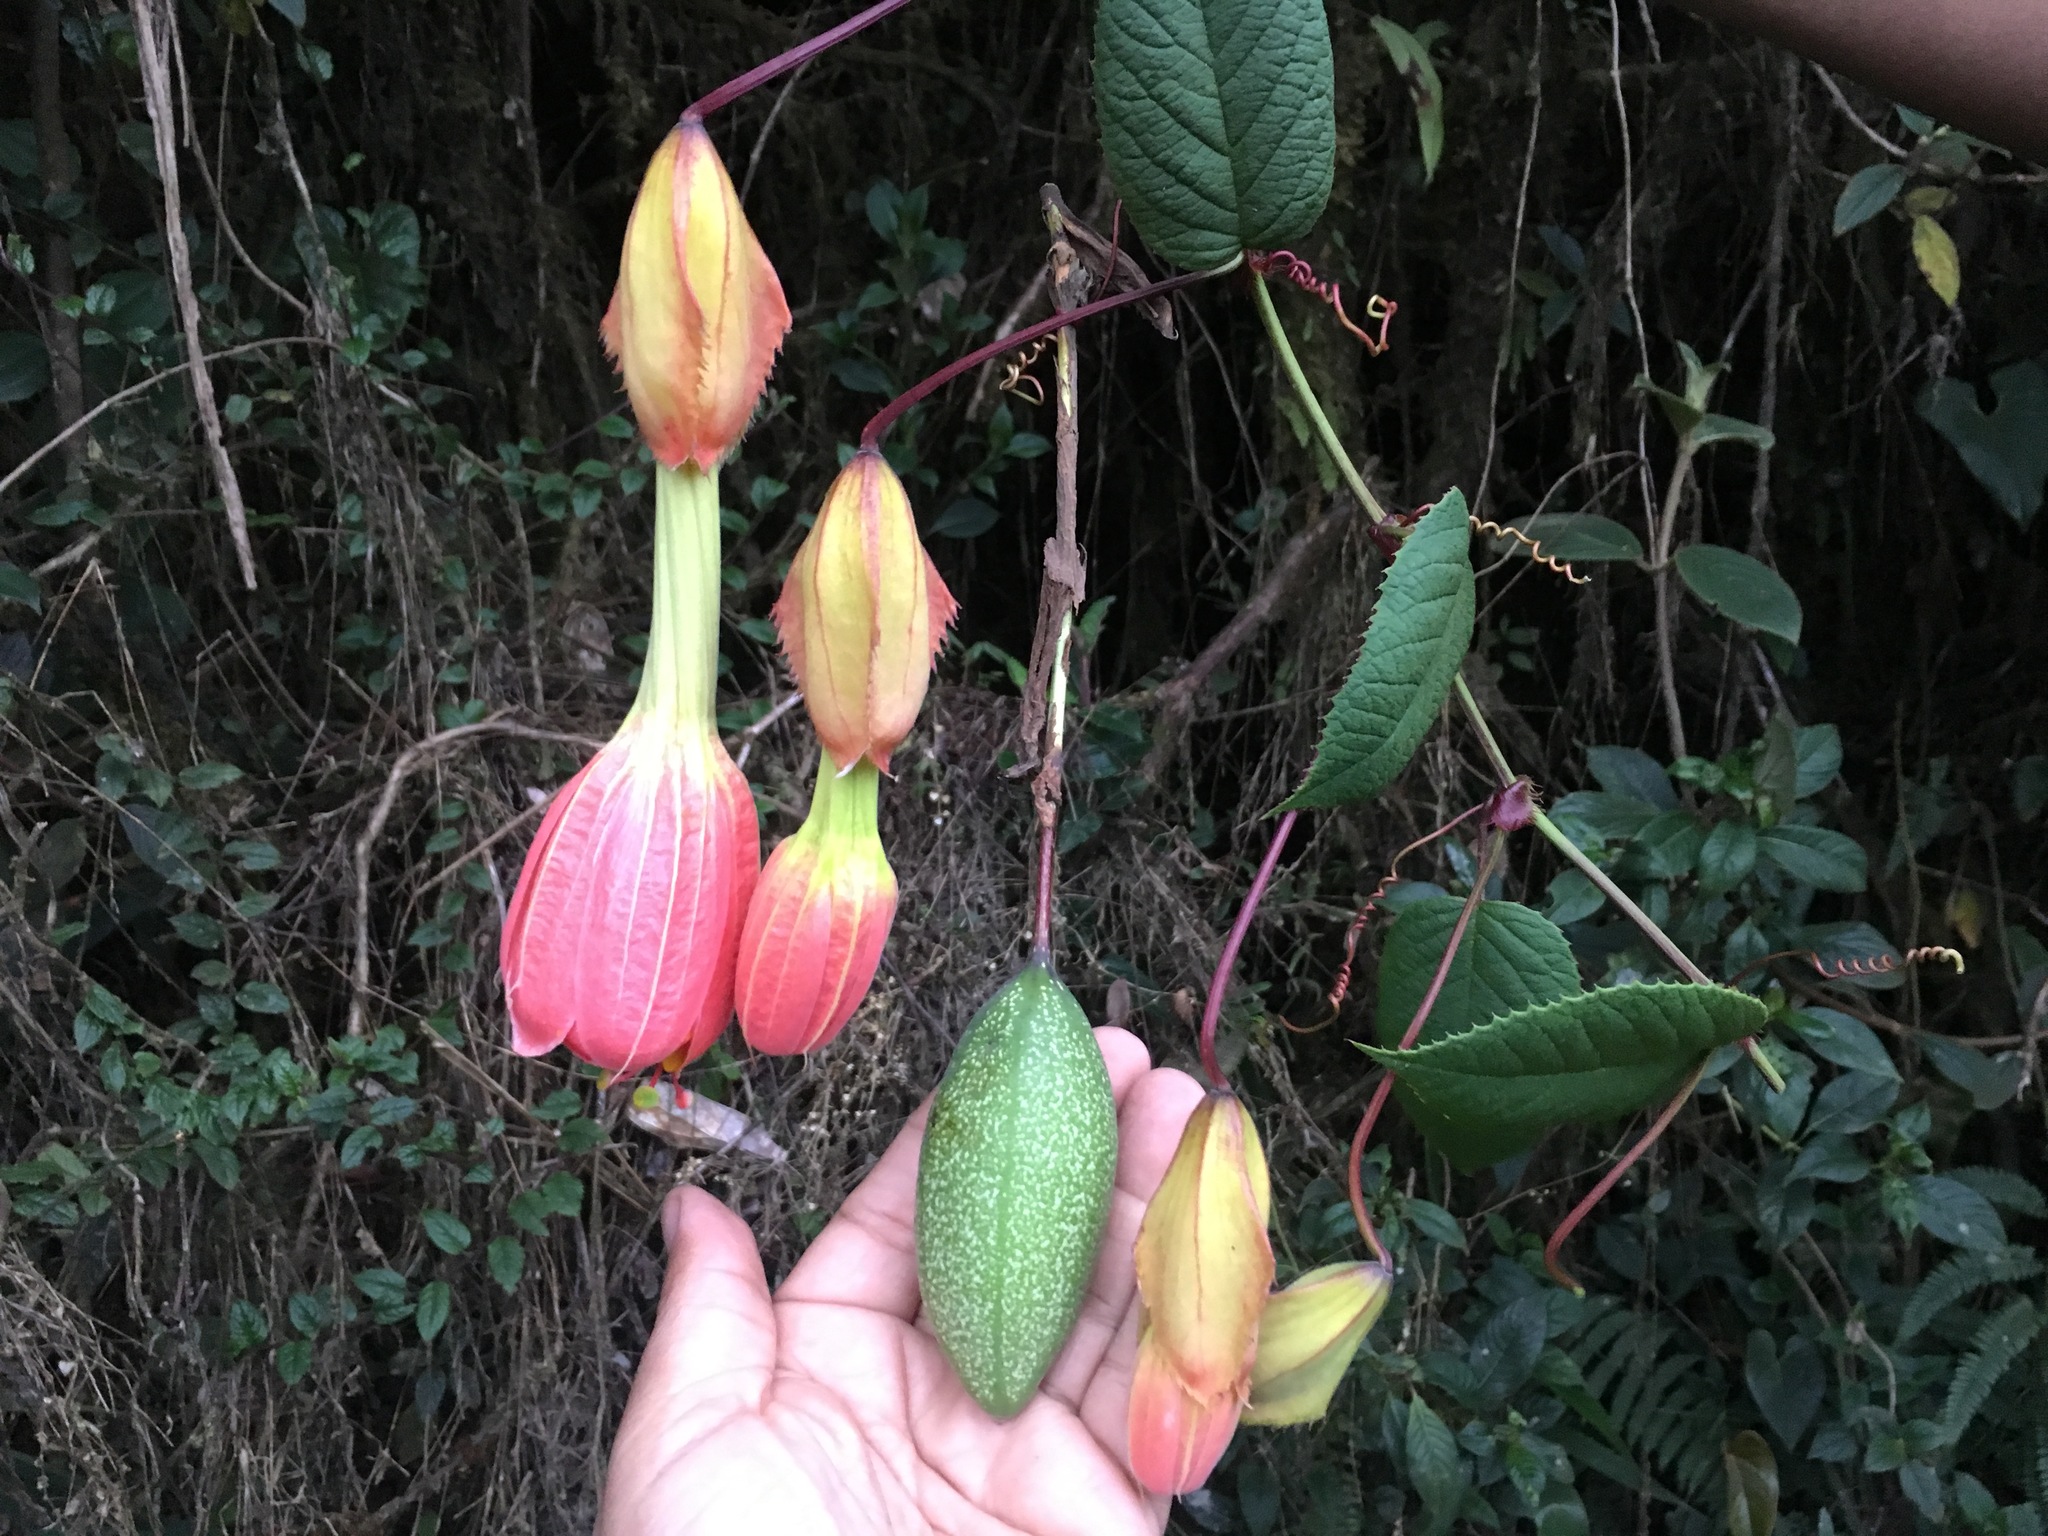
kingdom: Plantae
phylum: Tracheophyta
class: Magnoliopsida
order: Malpighiales
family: Passifloraceae
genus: Passiflora
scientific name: Passiflora fimbriatistipula
